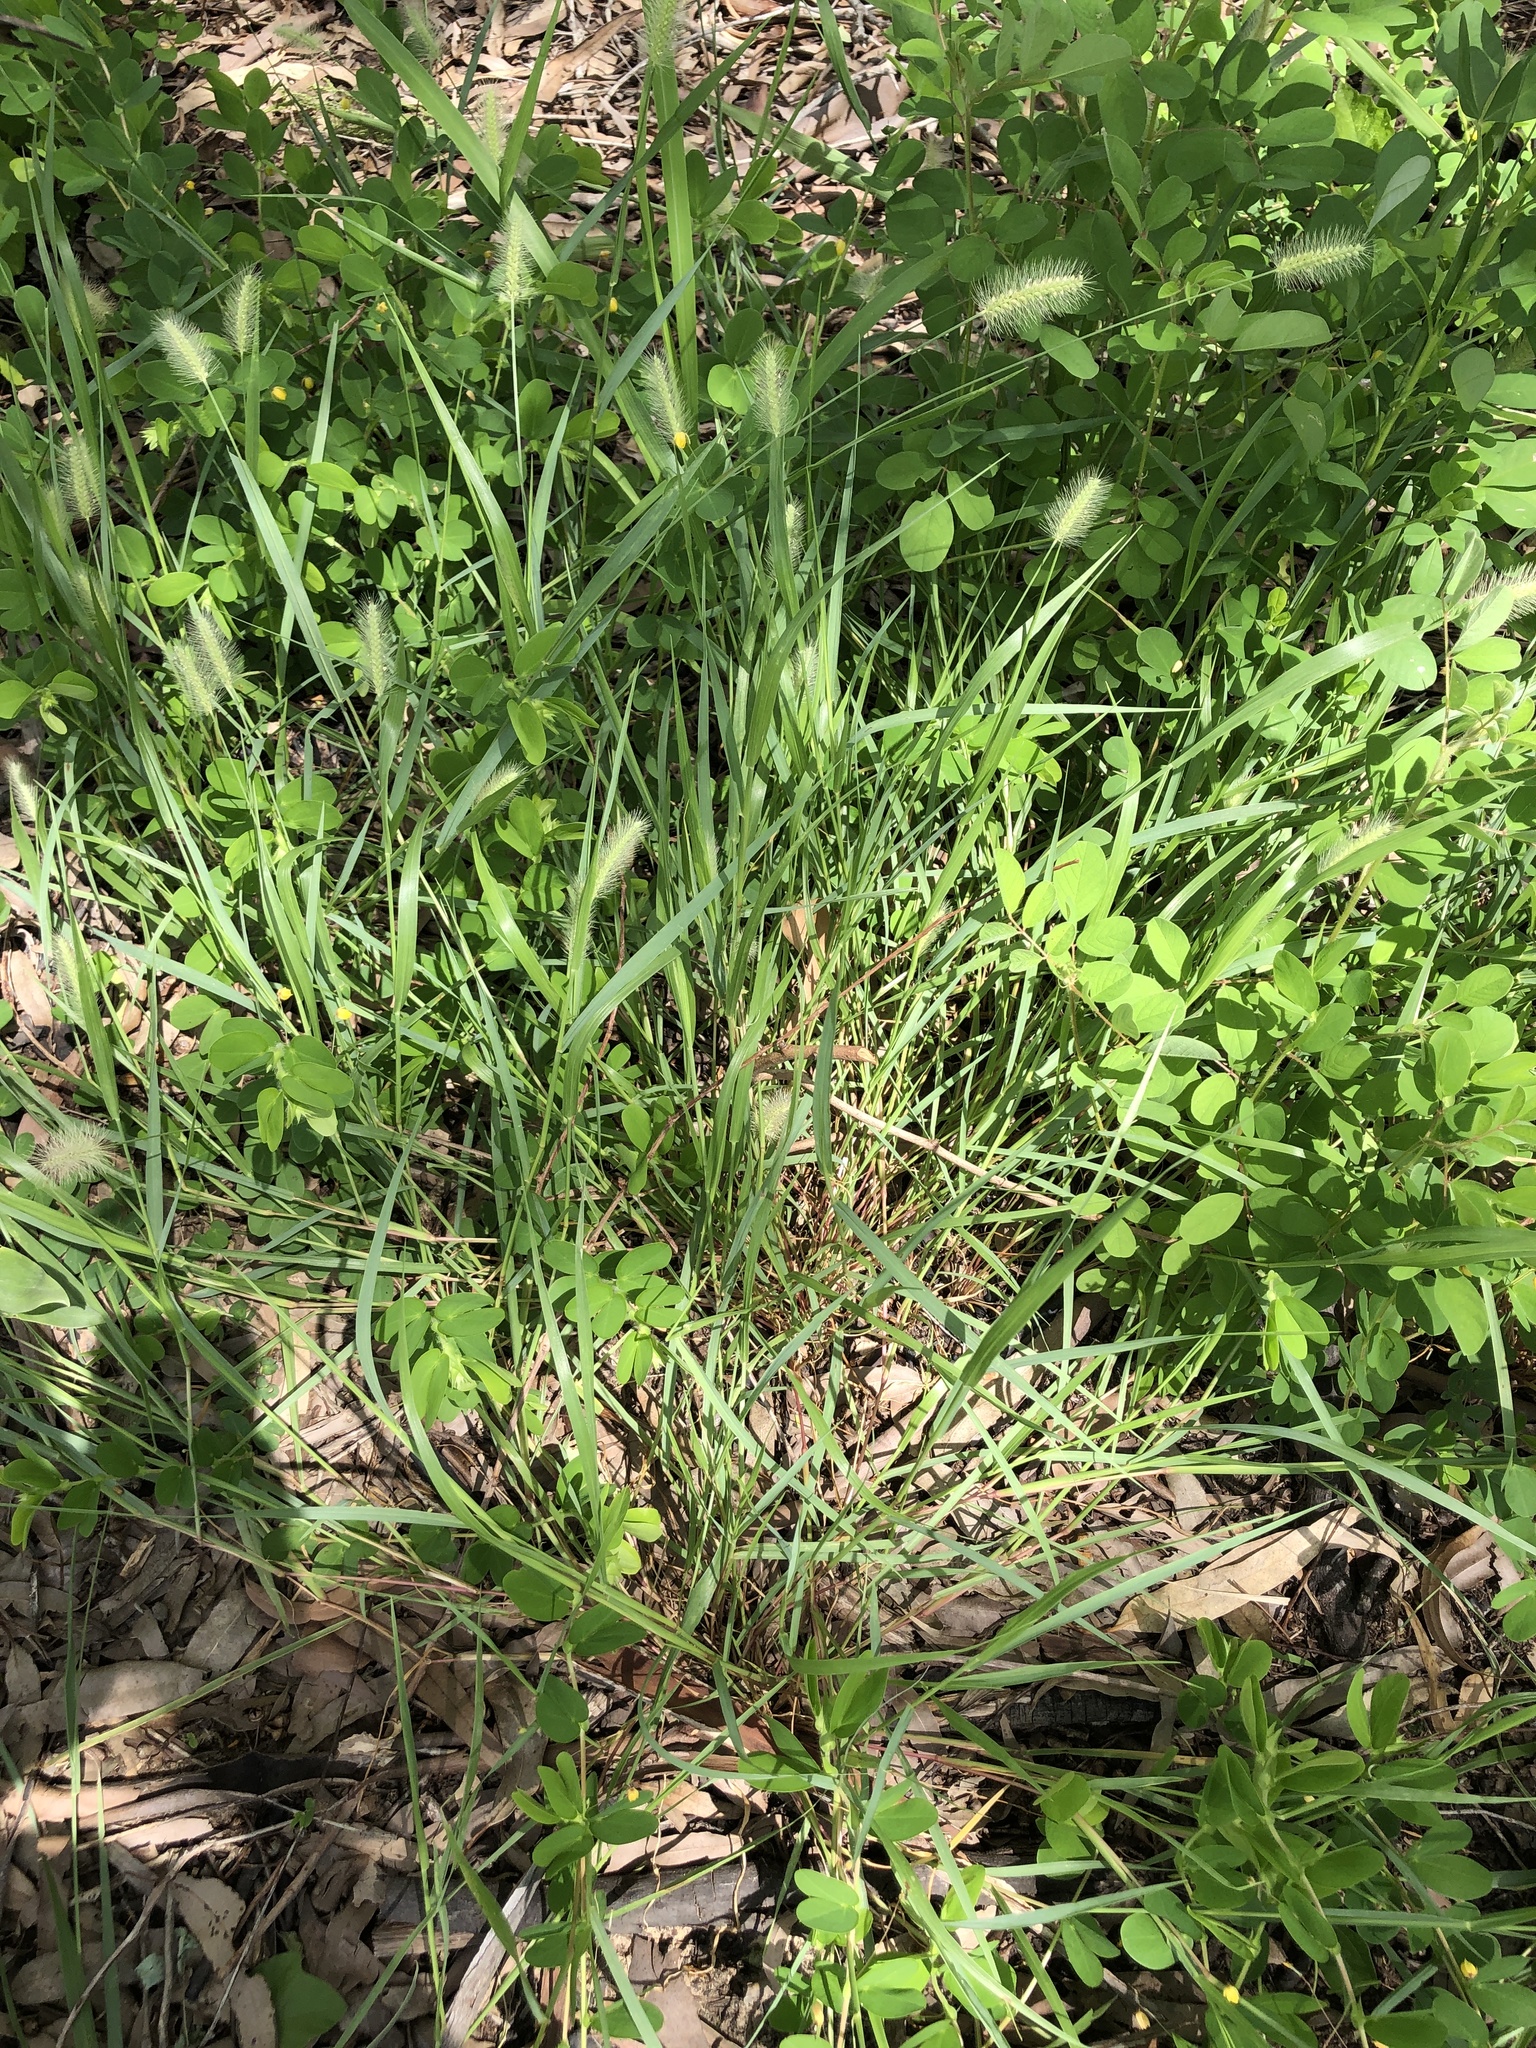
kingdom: Plantae
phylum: Tracheophyta
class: Liliopsida
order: Poales
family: Poaceae
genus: Setaria
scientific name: Setaria surgens
